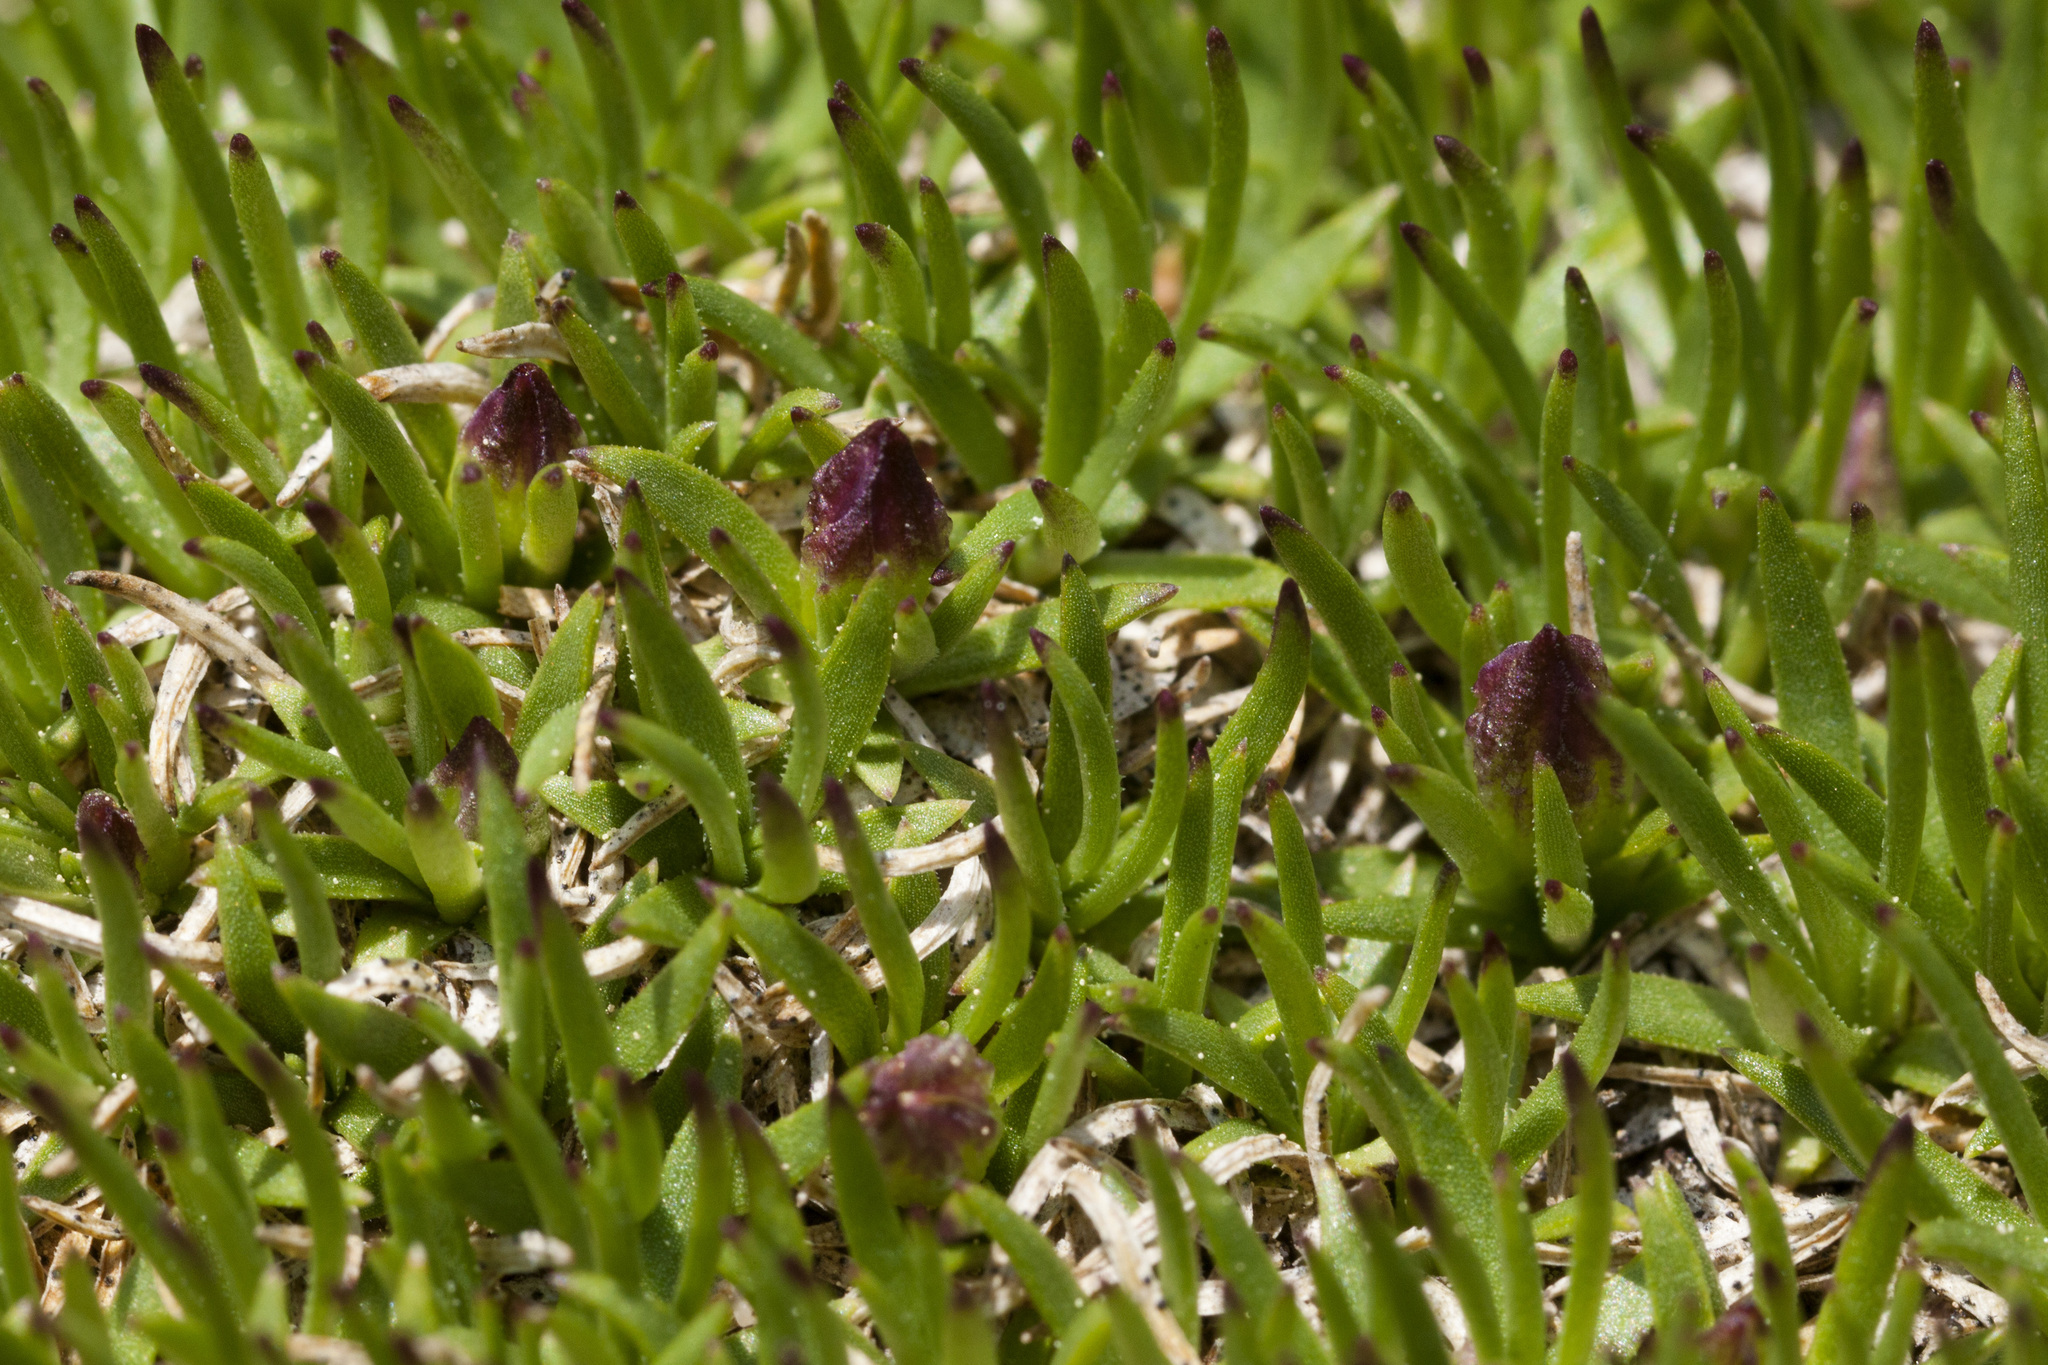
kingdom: Plantae
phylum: Tracheophyta
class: Magnoliopsida
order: Caryophyllales
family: Caryophyllaceae
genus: Silene
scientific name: Silene acaulis
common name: Moss campion
